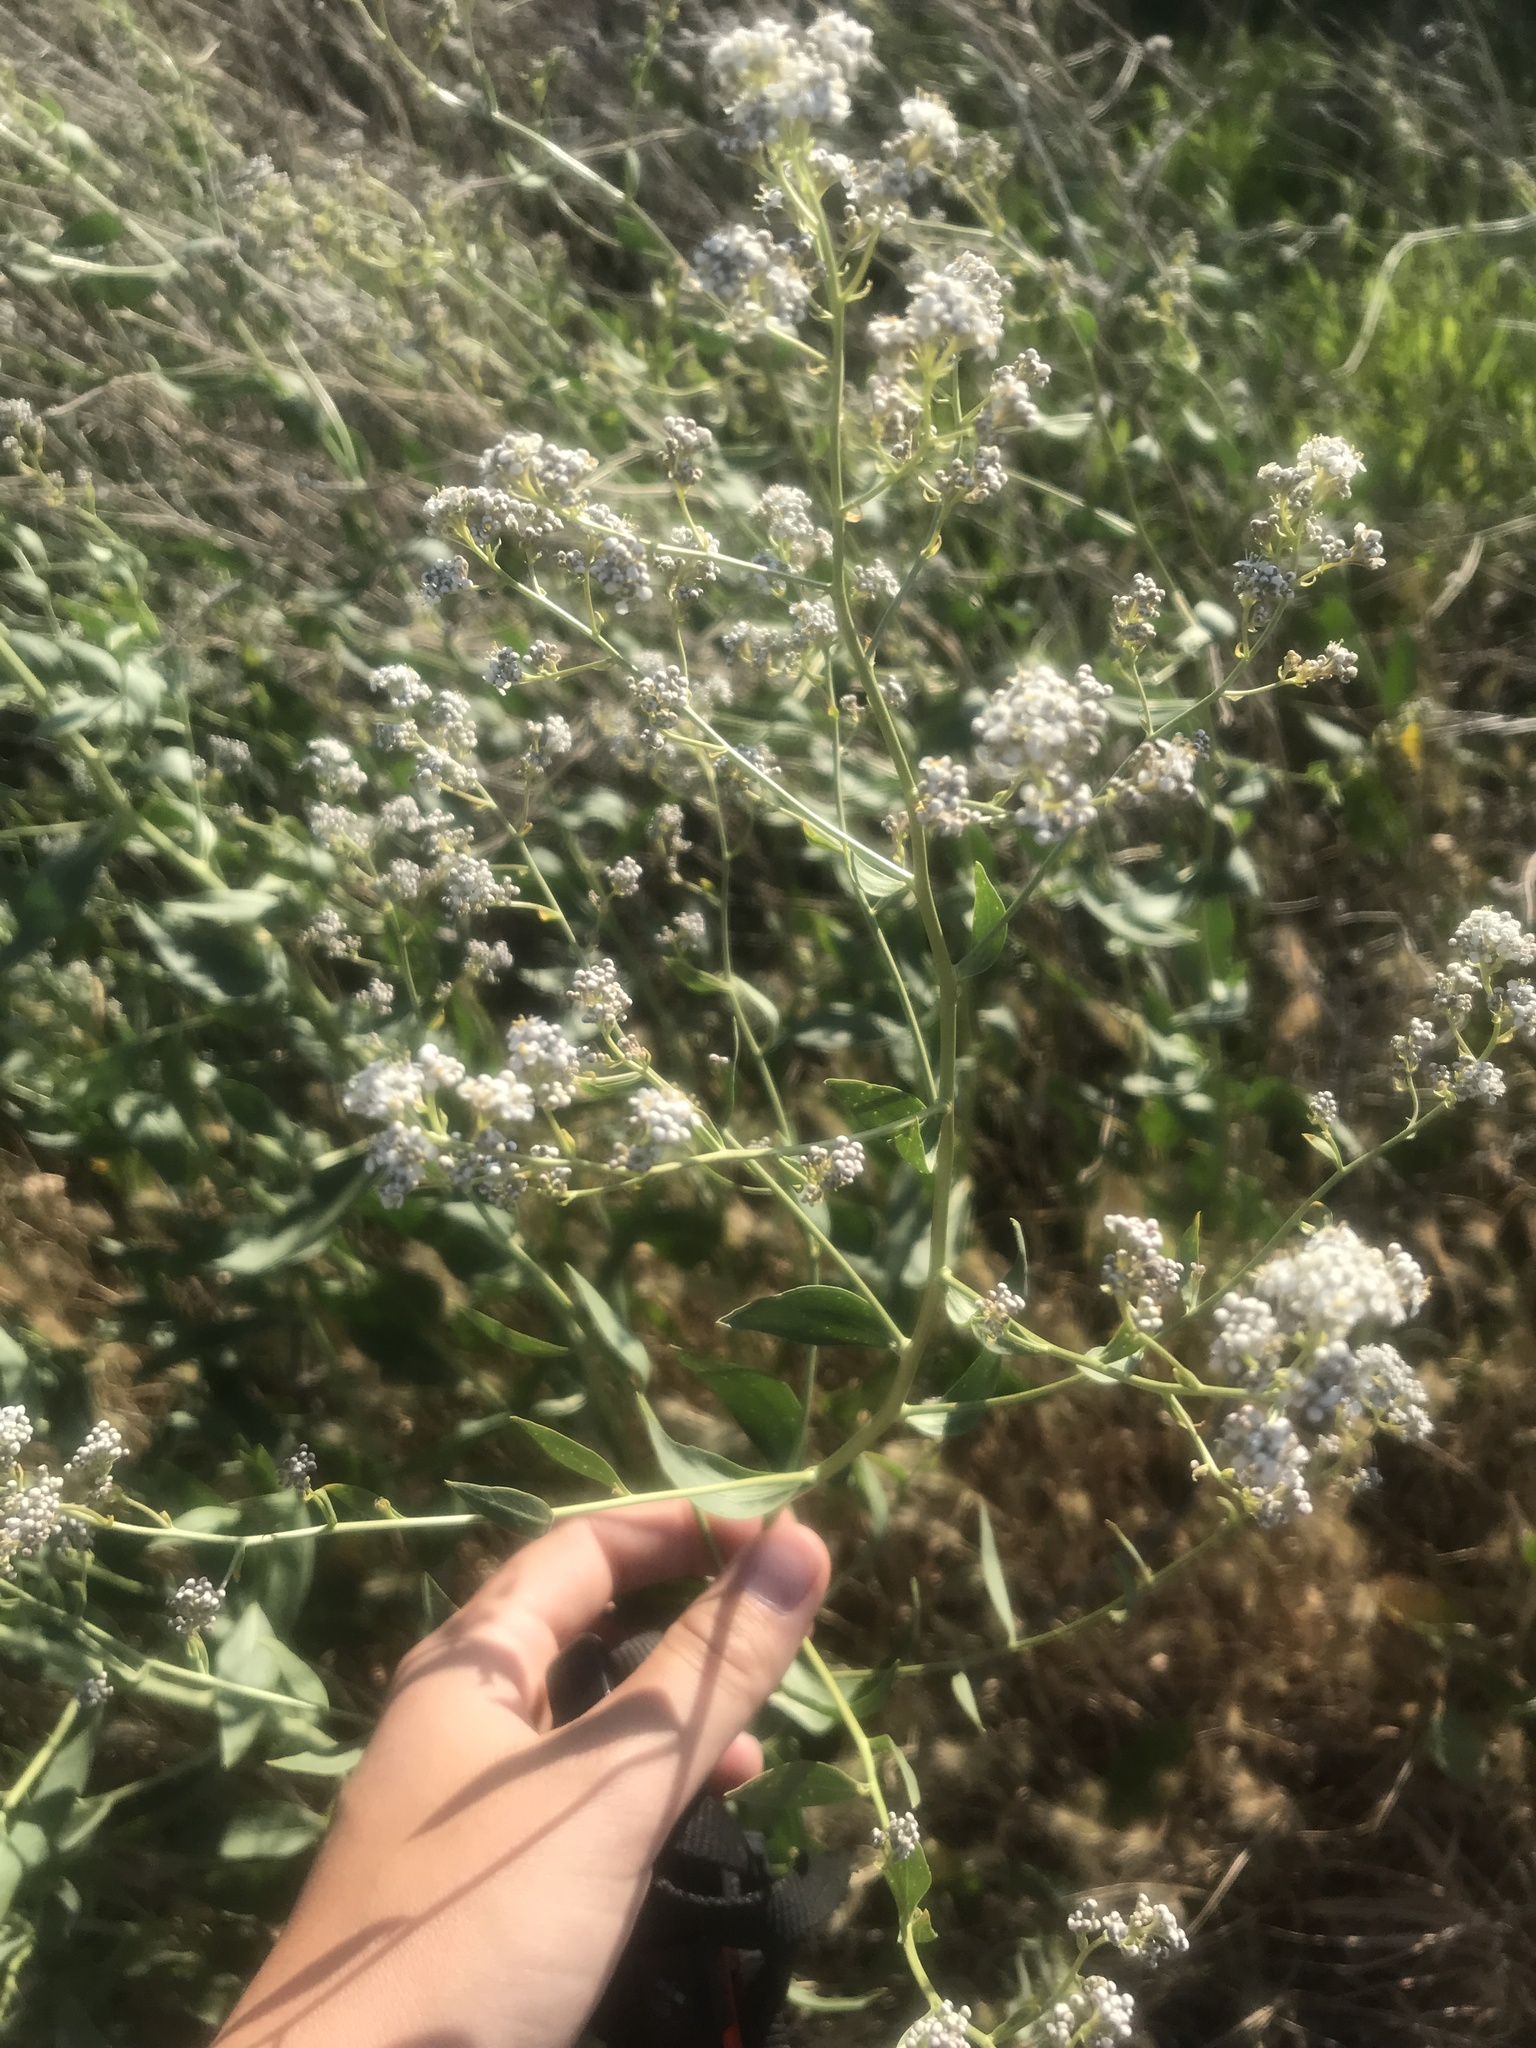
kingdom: Plantae
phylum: Tracheophyta
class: Magnoliopsida
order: Brassicales
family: Brassicaceae
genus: Lepidium
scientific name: Lepidium latifolium
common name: Dittander
